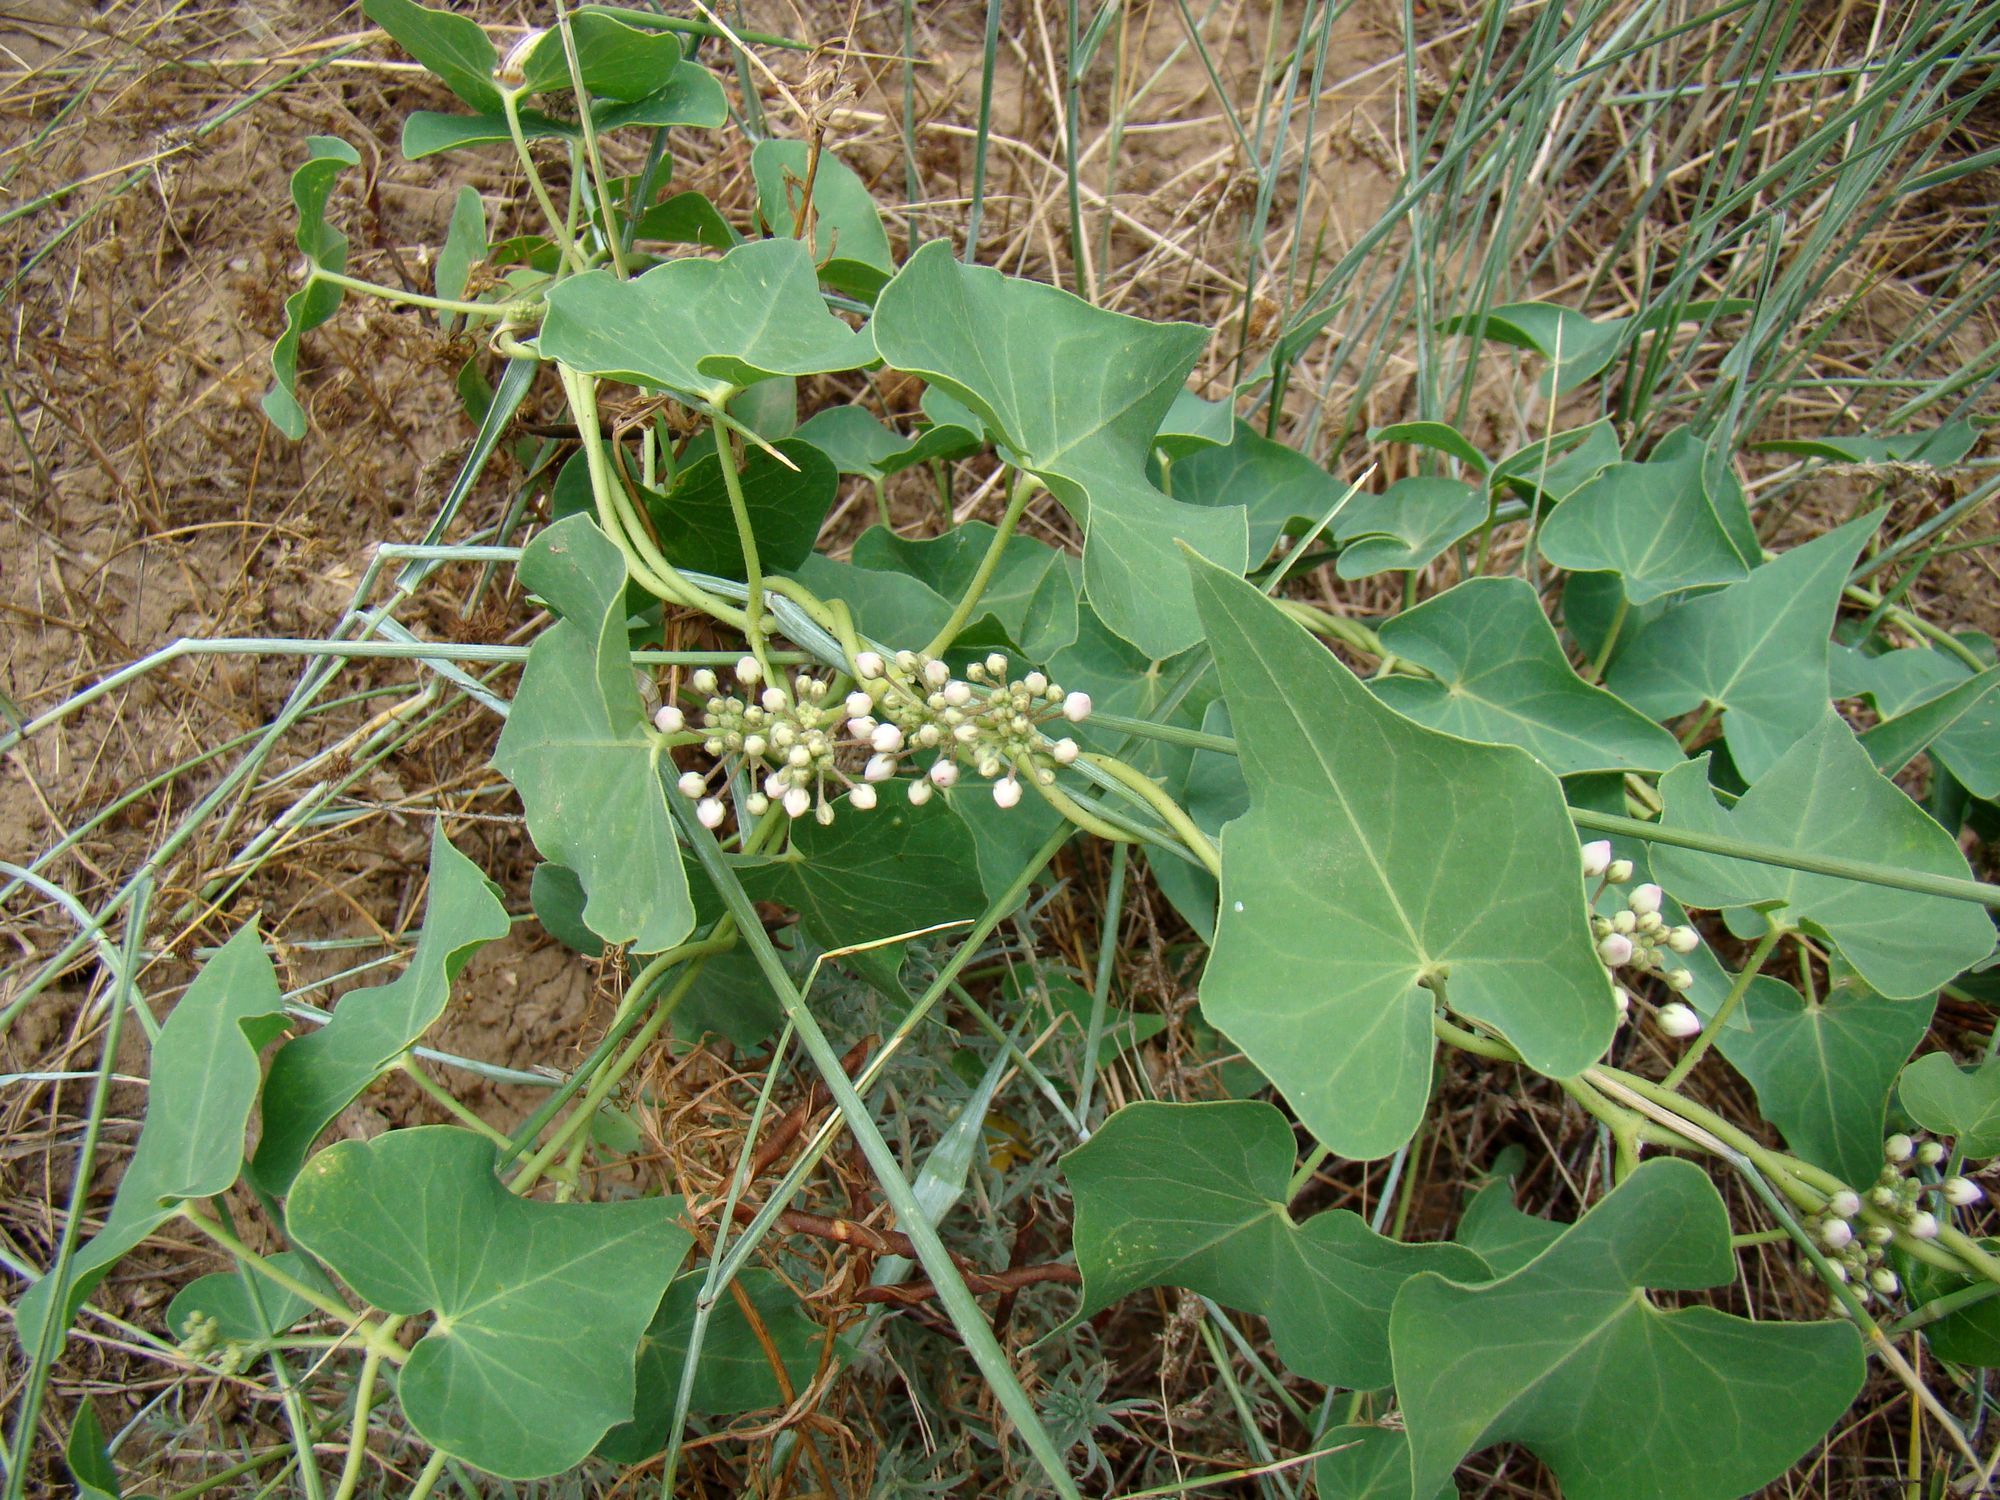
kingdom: Plantae
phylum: Tracheophyta
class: Magnoliopsida
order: Gentianales
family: Apocynaceae
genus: Cynanchum
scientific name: Cynanchum acutum
